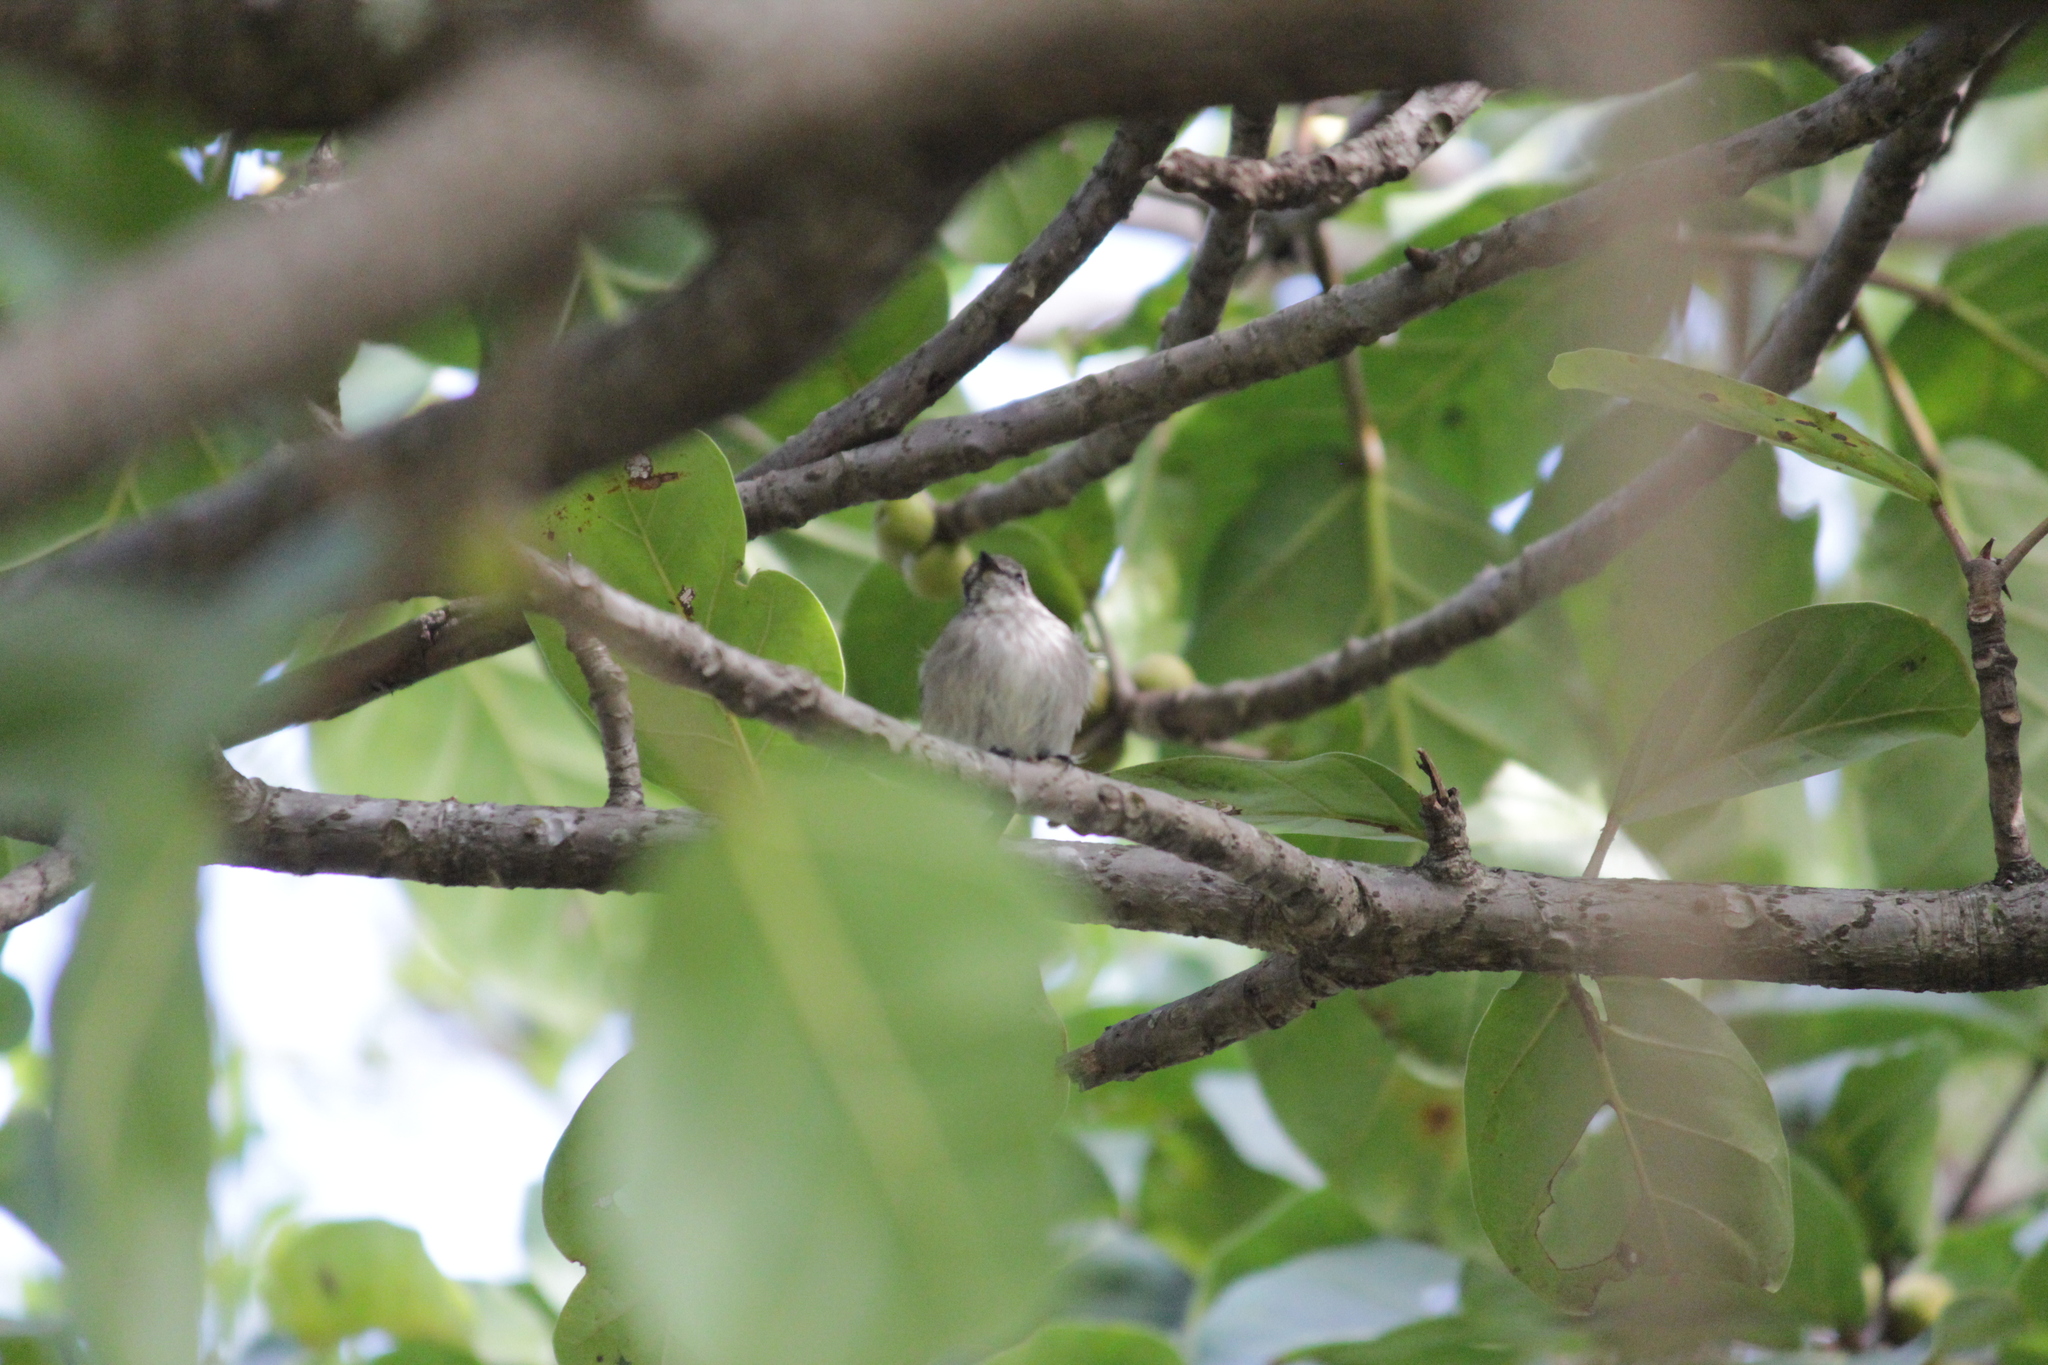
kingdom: Animalia
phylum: Chordata
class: Aves
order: Passeriformes
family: Muscicapidae
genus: Muscicapa
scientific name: Muscicapa adusta
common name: African dusky flycatcher
